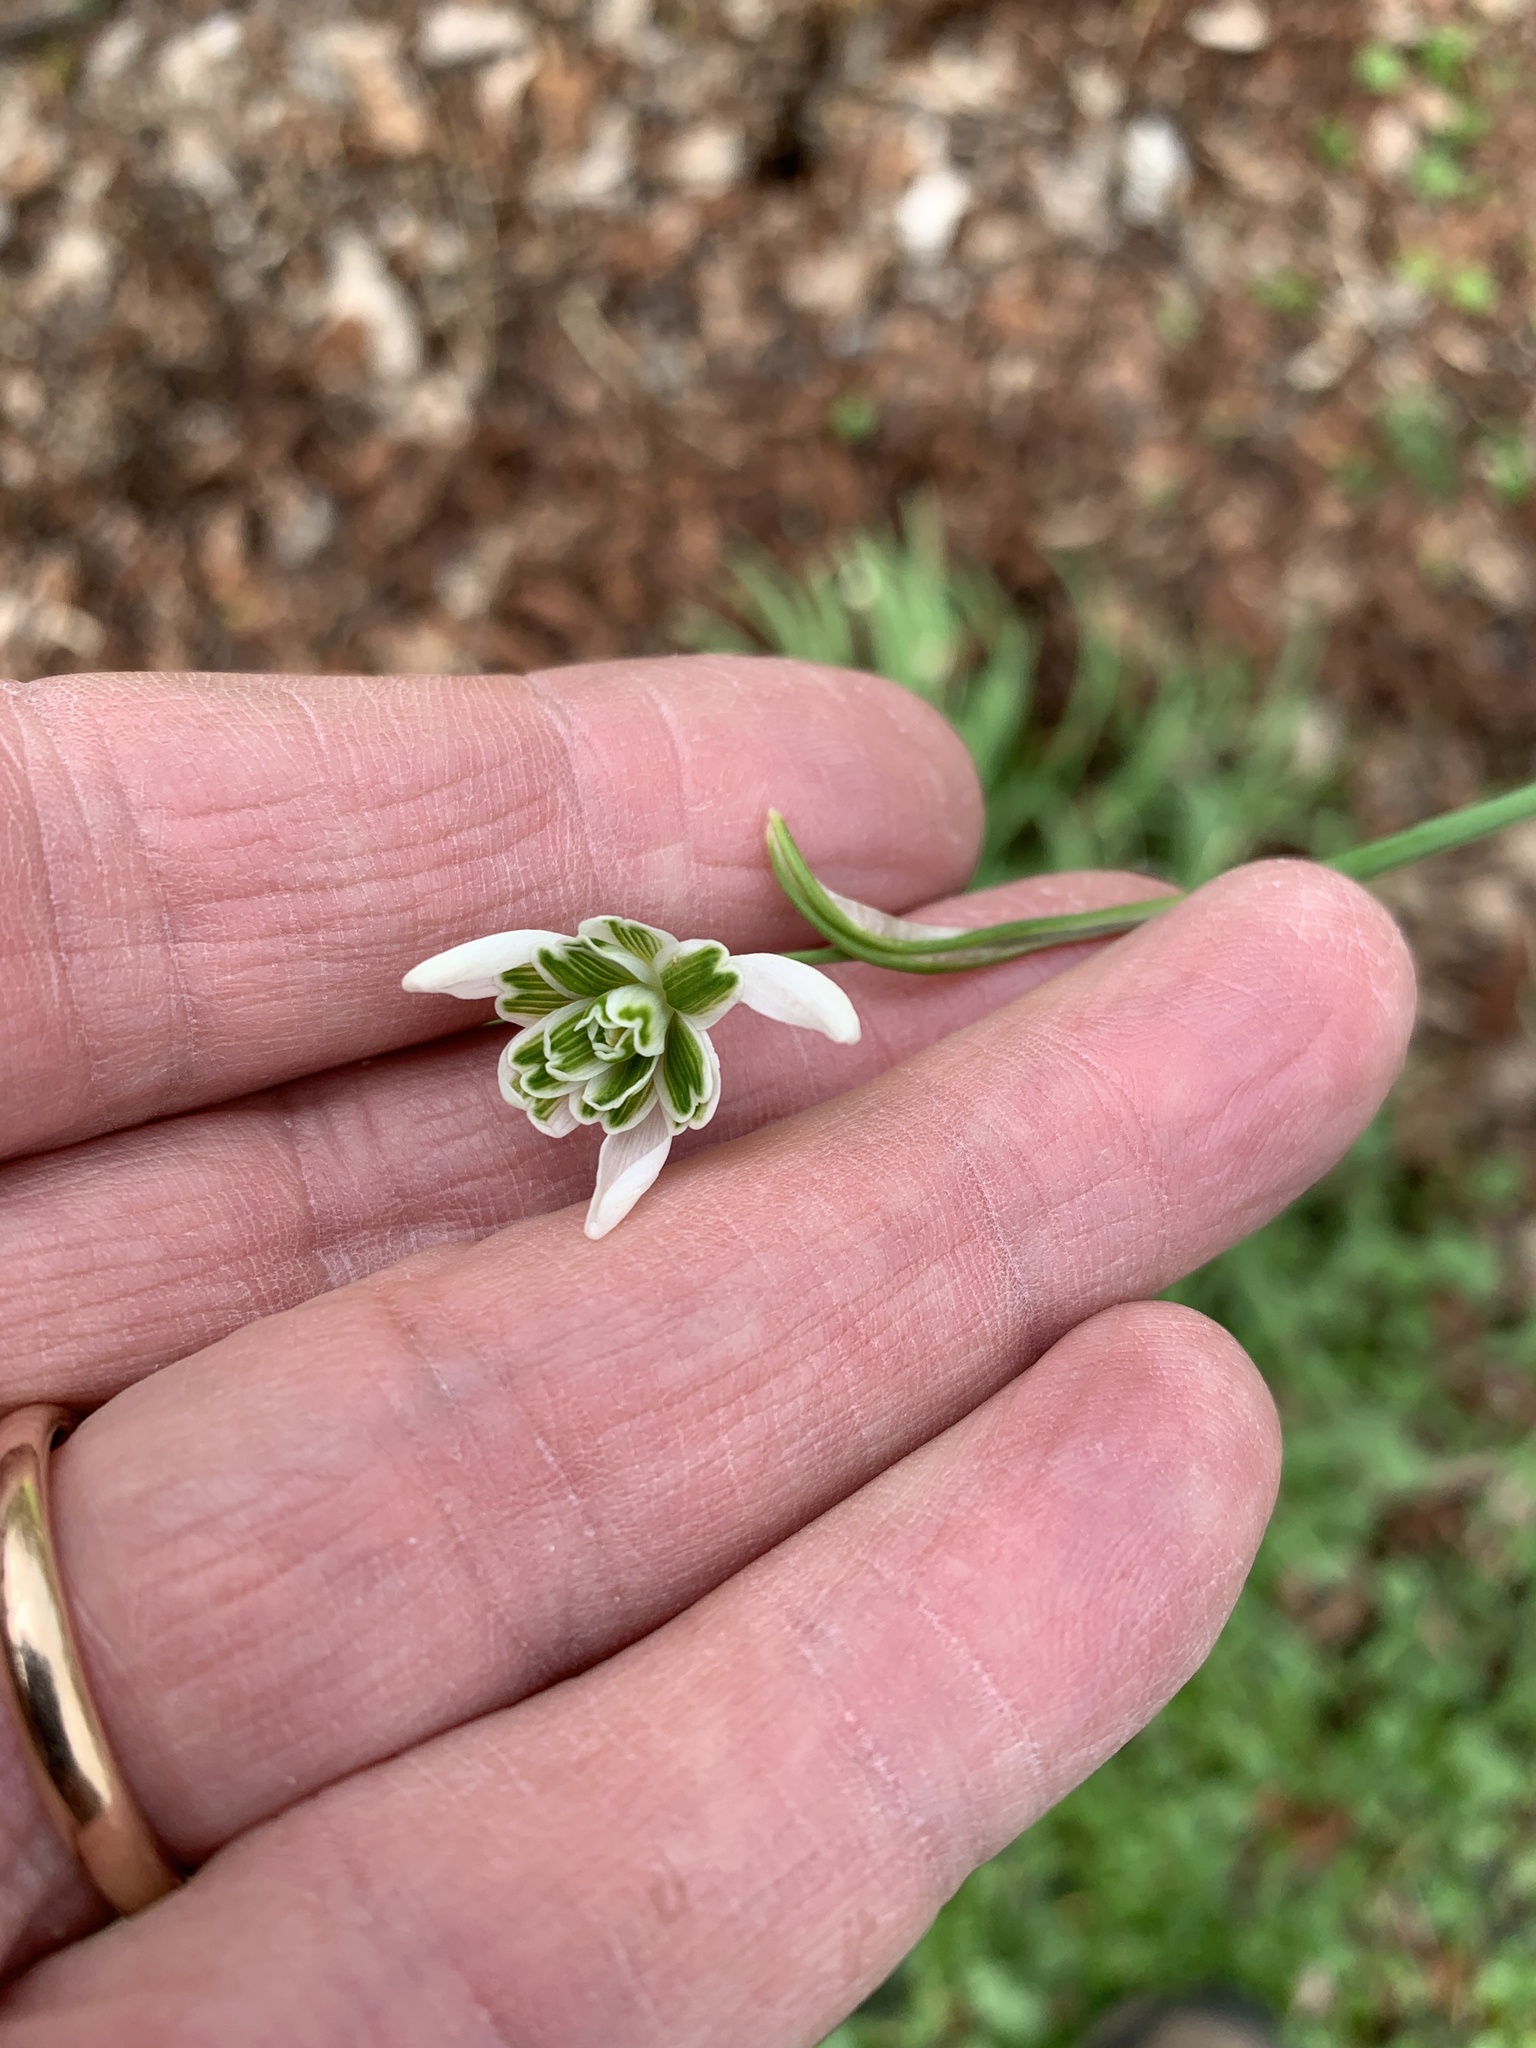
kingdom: Plantae
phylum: Tracheophyta
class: Liliopsida
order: Asparagales
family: Amaryllidaceae
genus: Galanthus
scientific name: Galanthus nivalis
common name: Snowdrop
